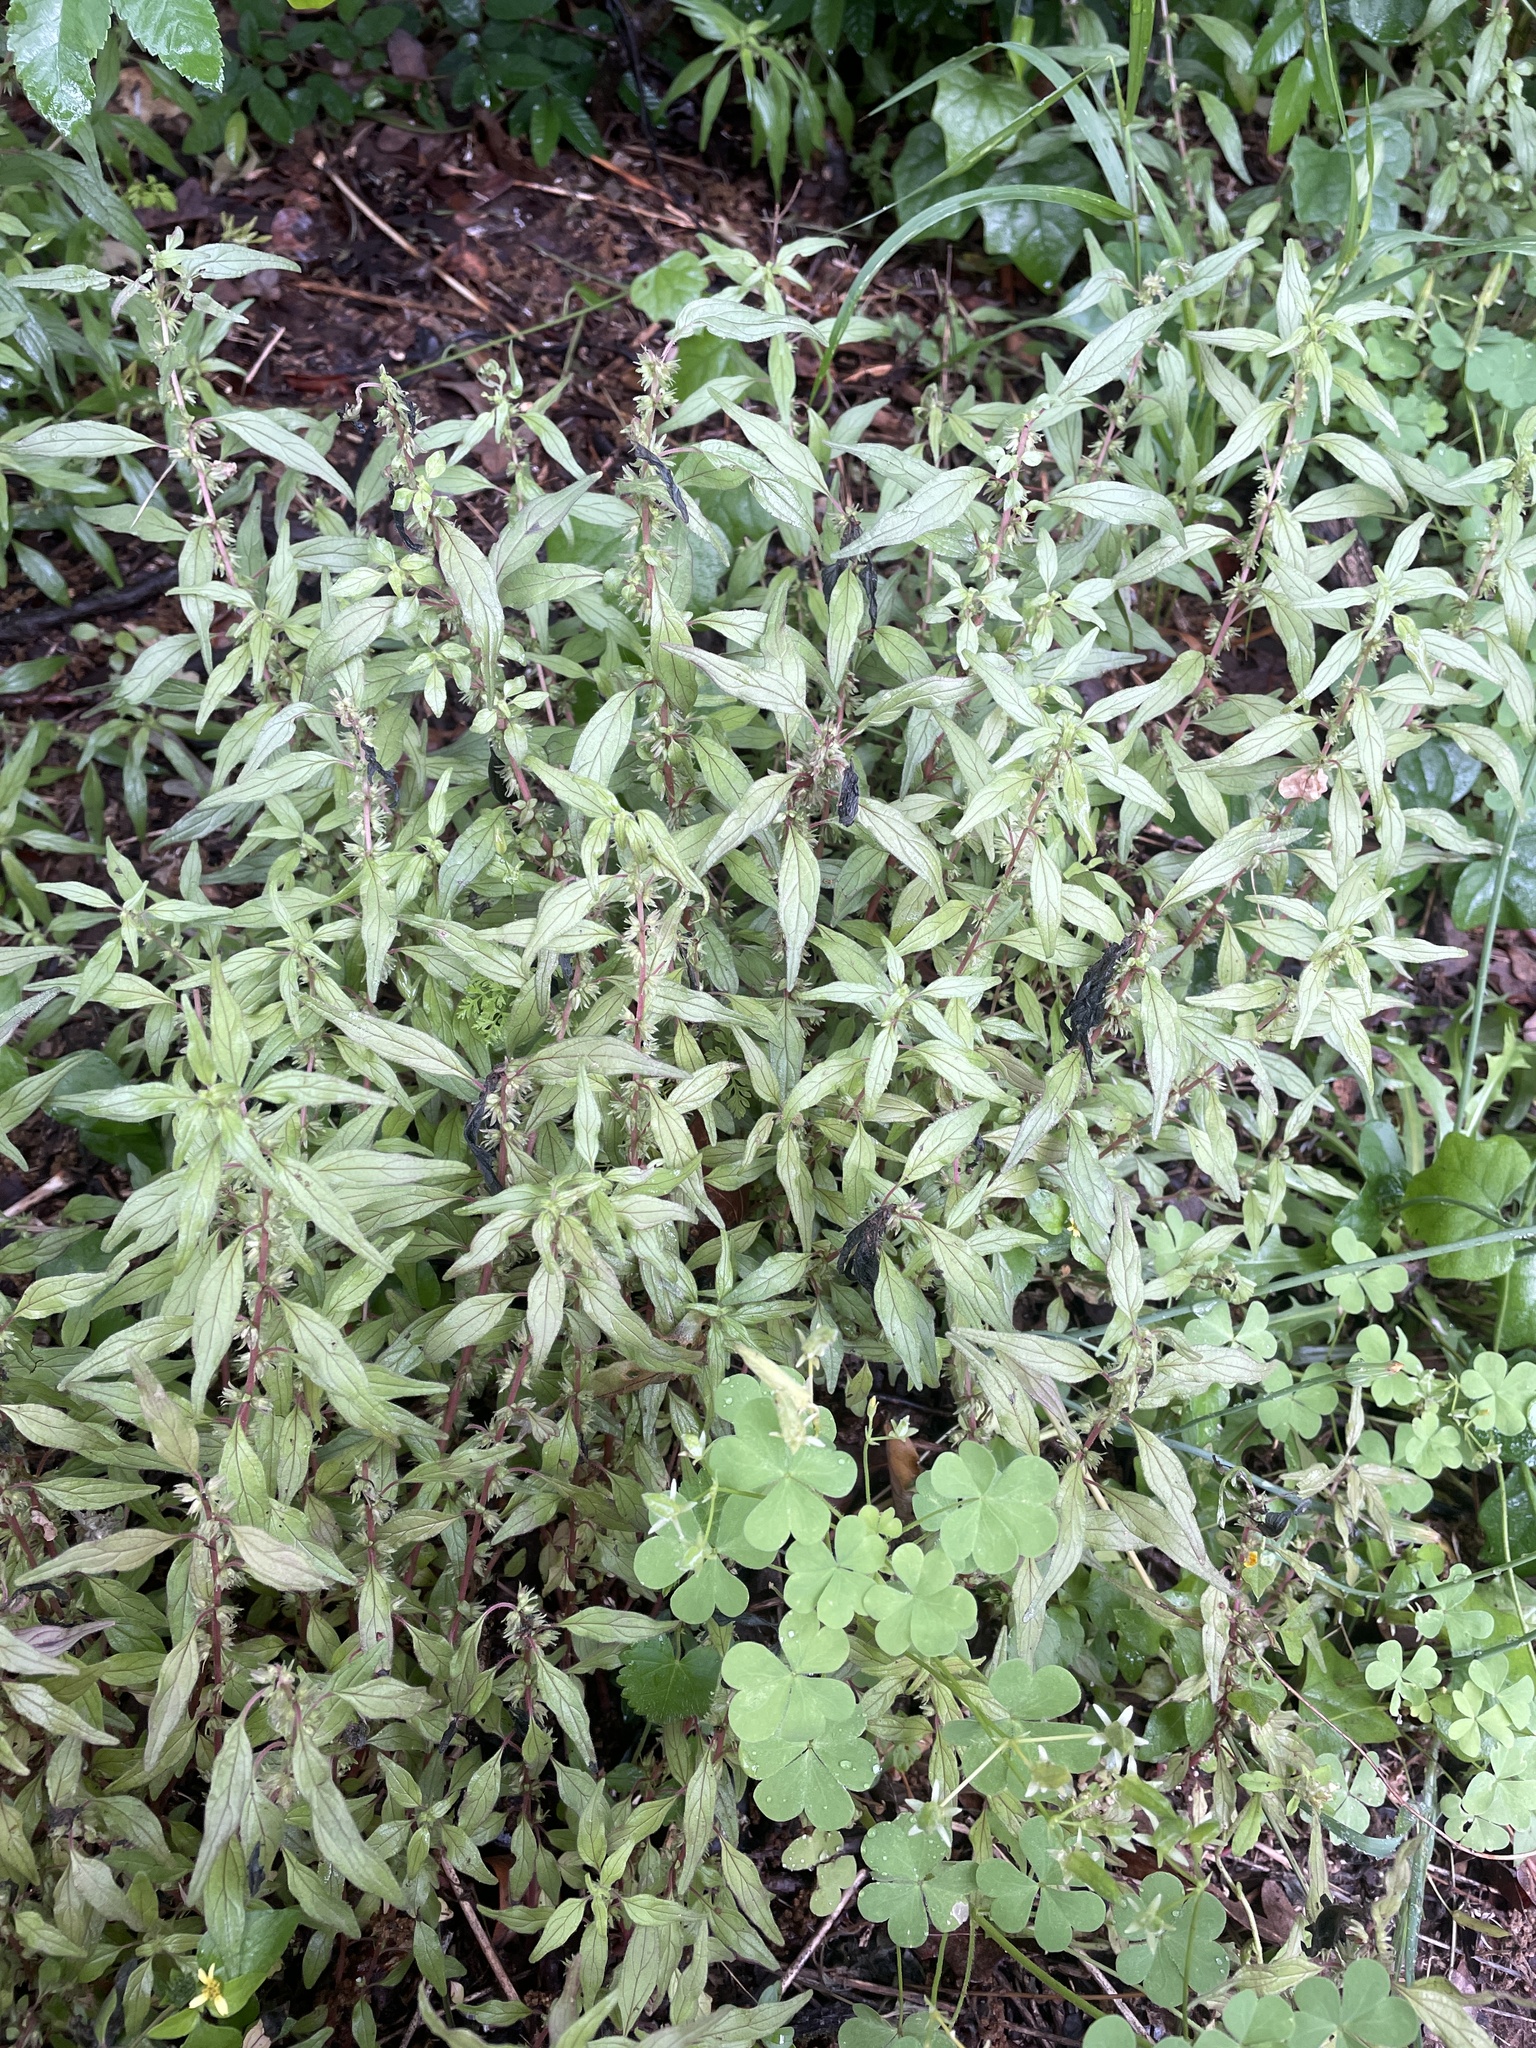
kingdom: Plantae
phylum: Tracheophyta
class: Magnoliopsida
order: Rosales
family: Urticaceae
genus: Parietaria
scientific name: Parietaria pensylvanica
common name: Pennsylvania pellitory
